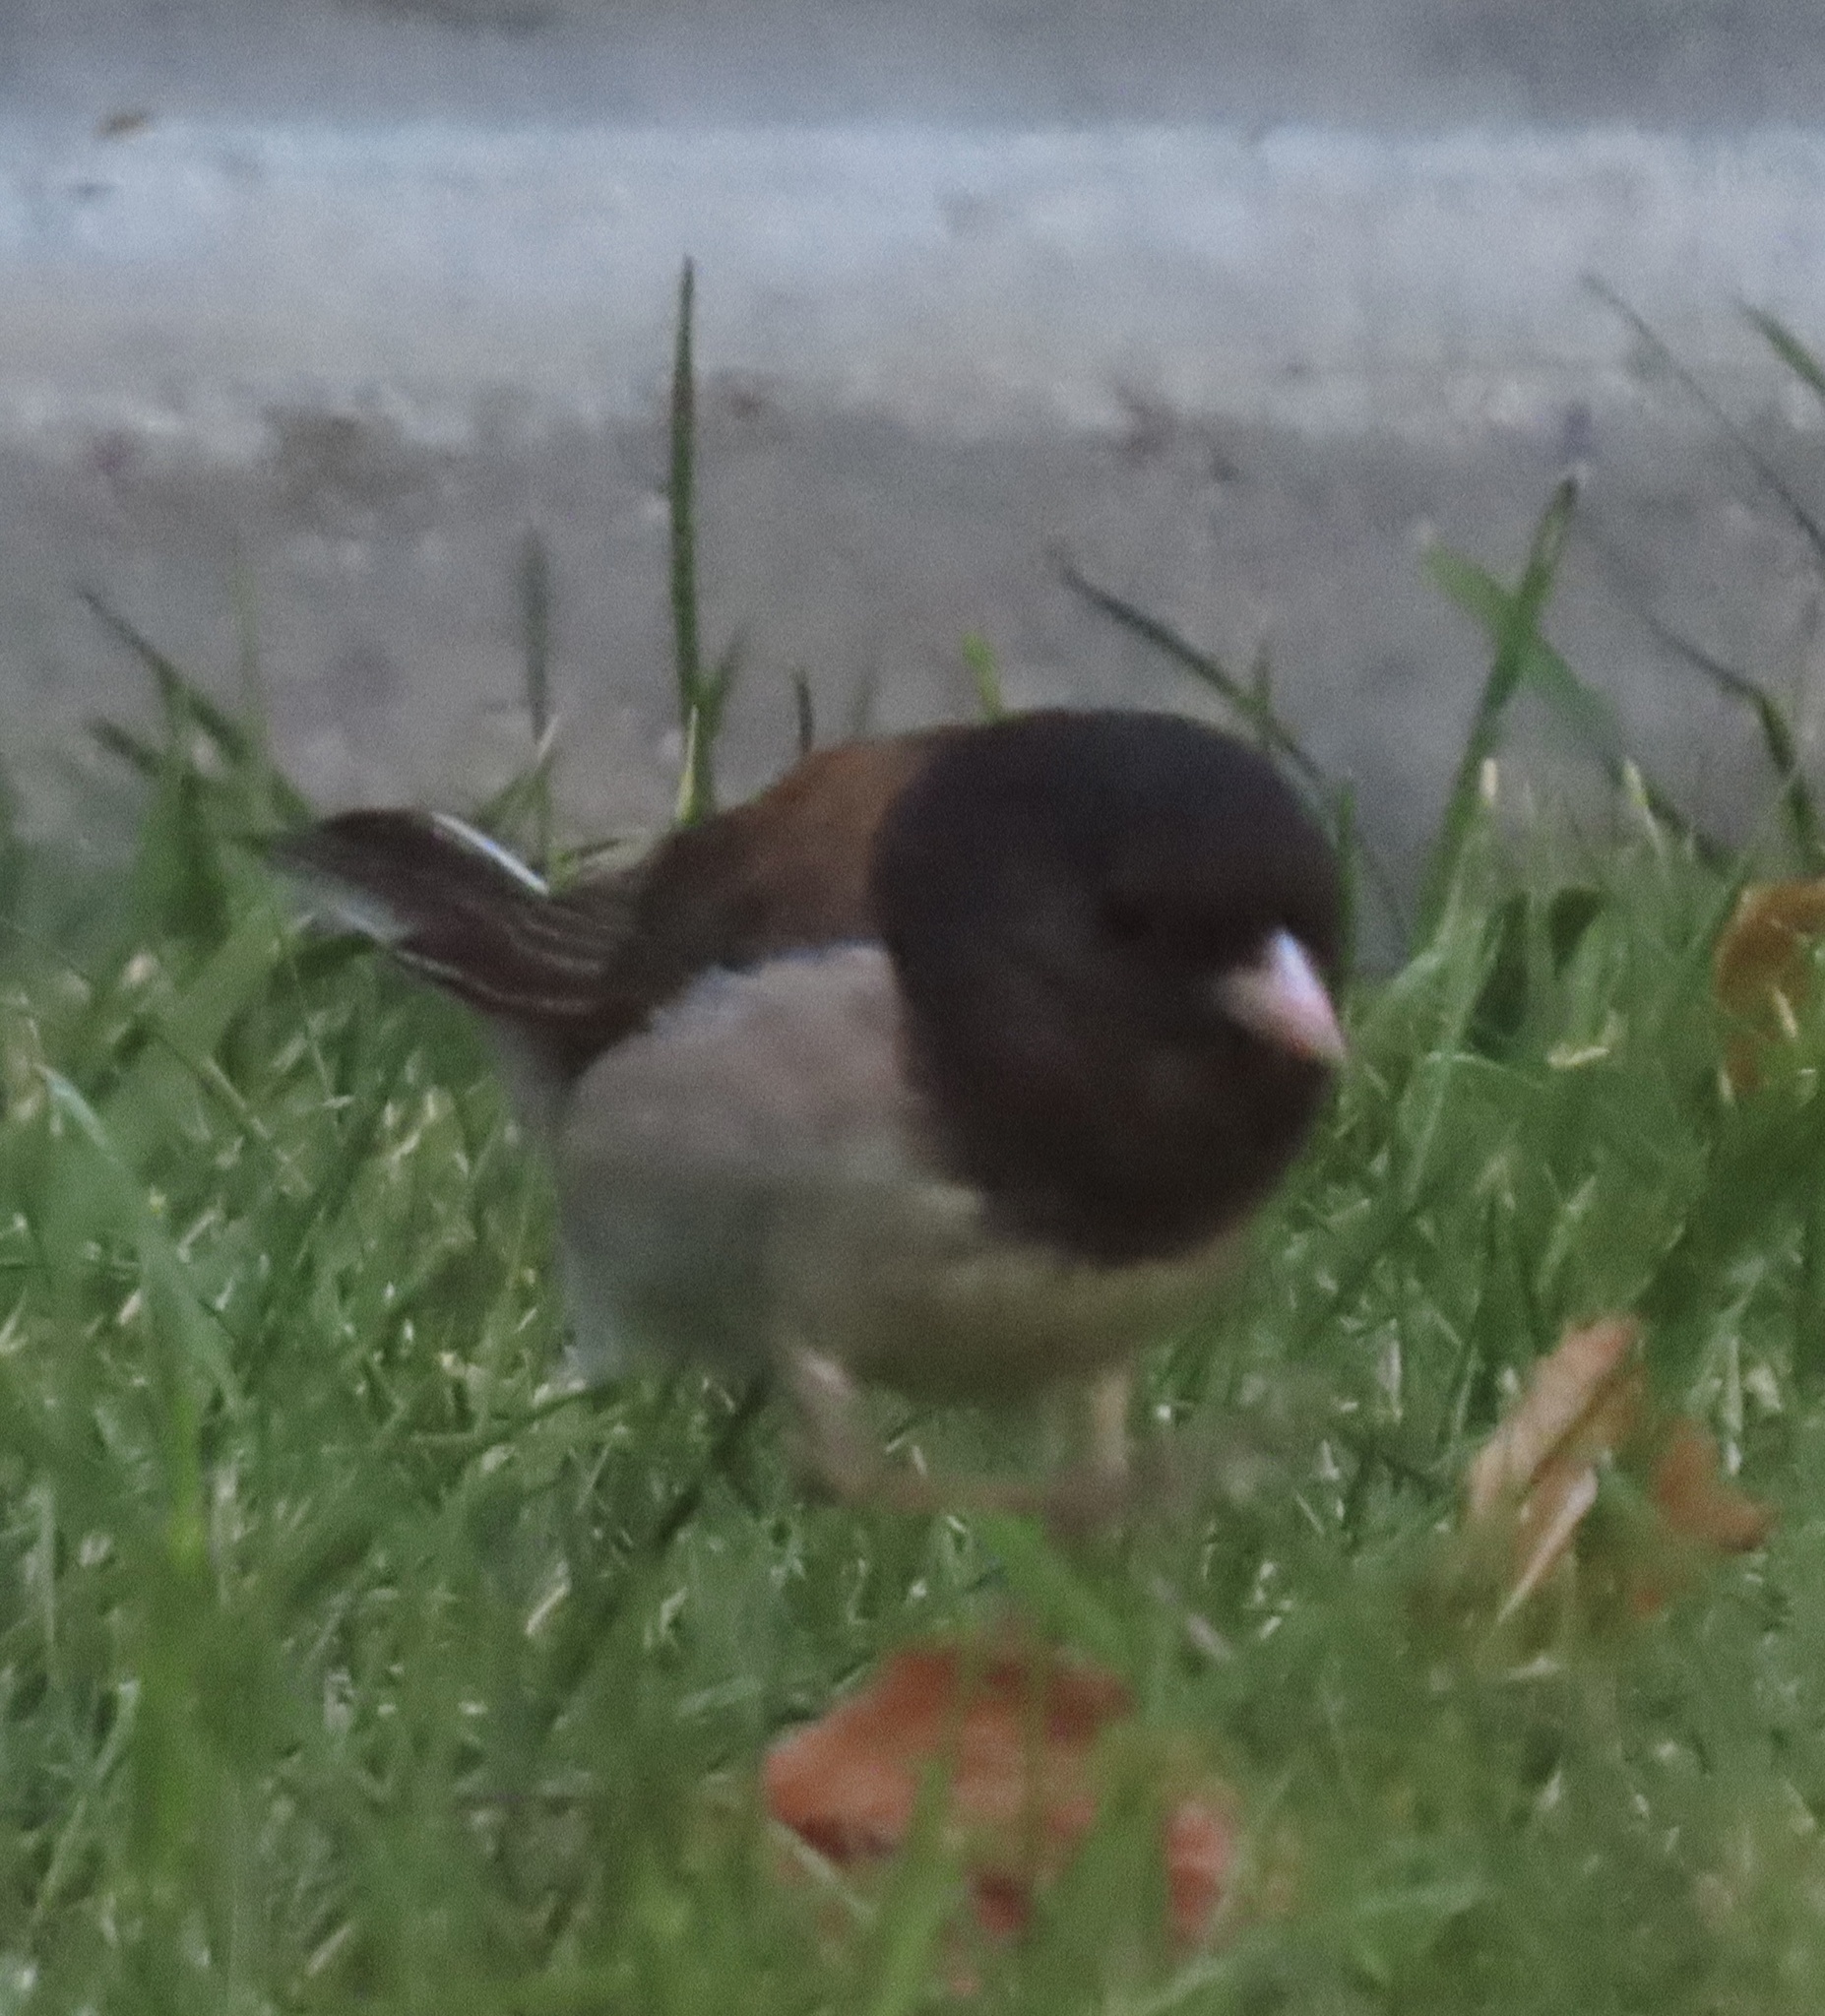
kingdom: Animalia
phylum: Chordata
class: Aves
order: Passeriformes
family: Passerellidae
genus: Junco
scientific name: Junco hyemalis
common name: Dark-eyed junco
